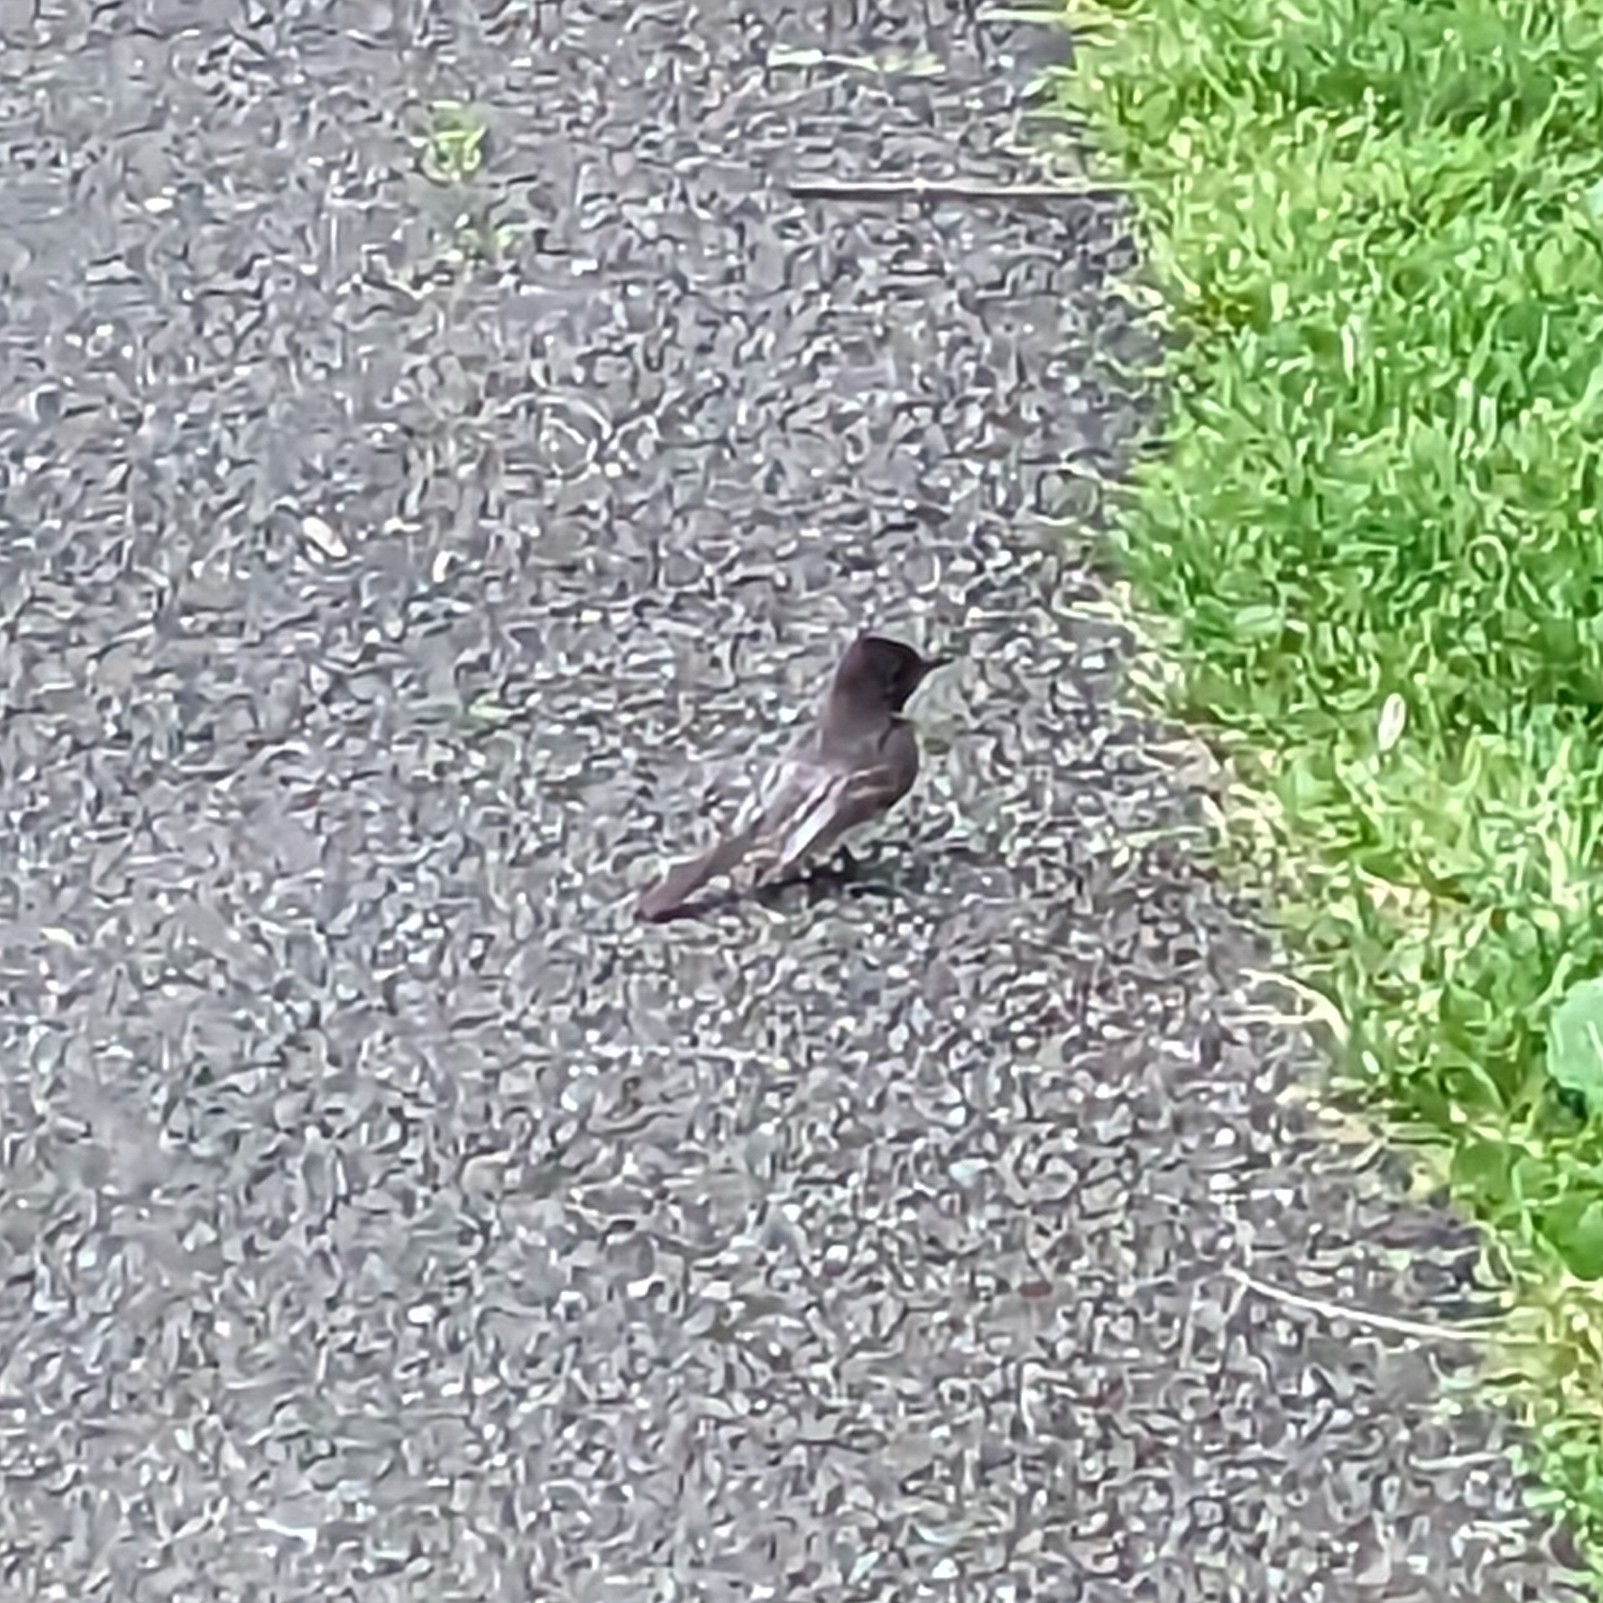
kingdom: Animalia
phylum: Chordata
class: Aves
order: Passeriformes
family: Tyrannidae
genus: Sayornis
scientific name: Sayornis nigricans
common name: Black phoebe
